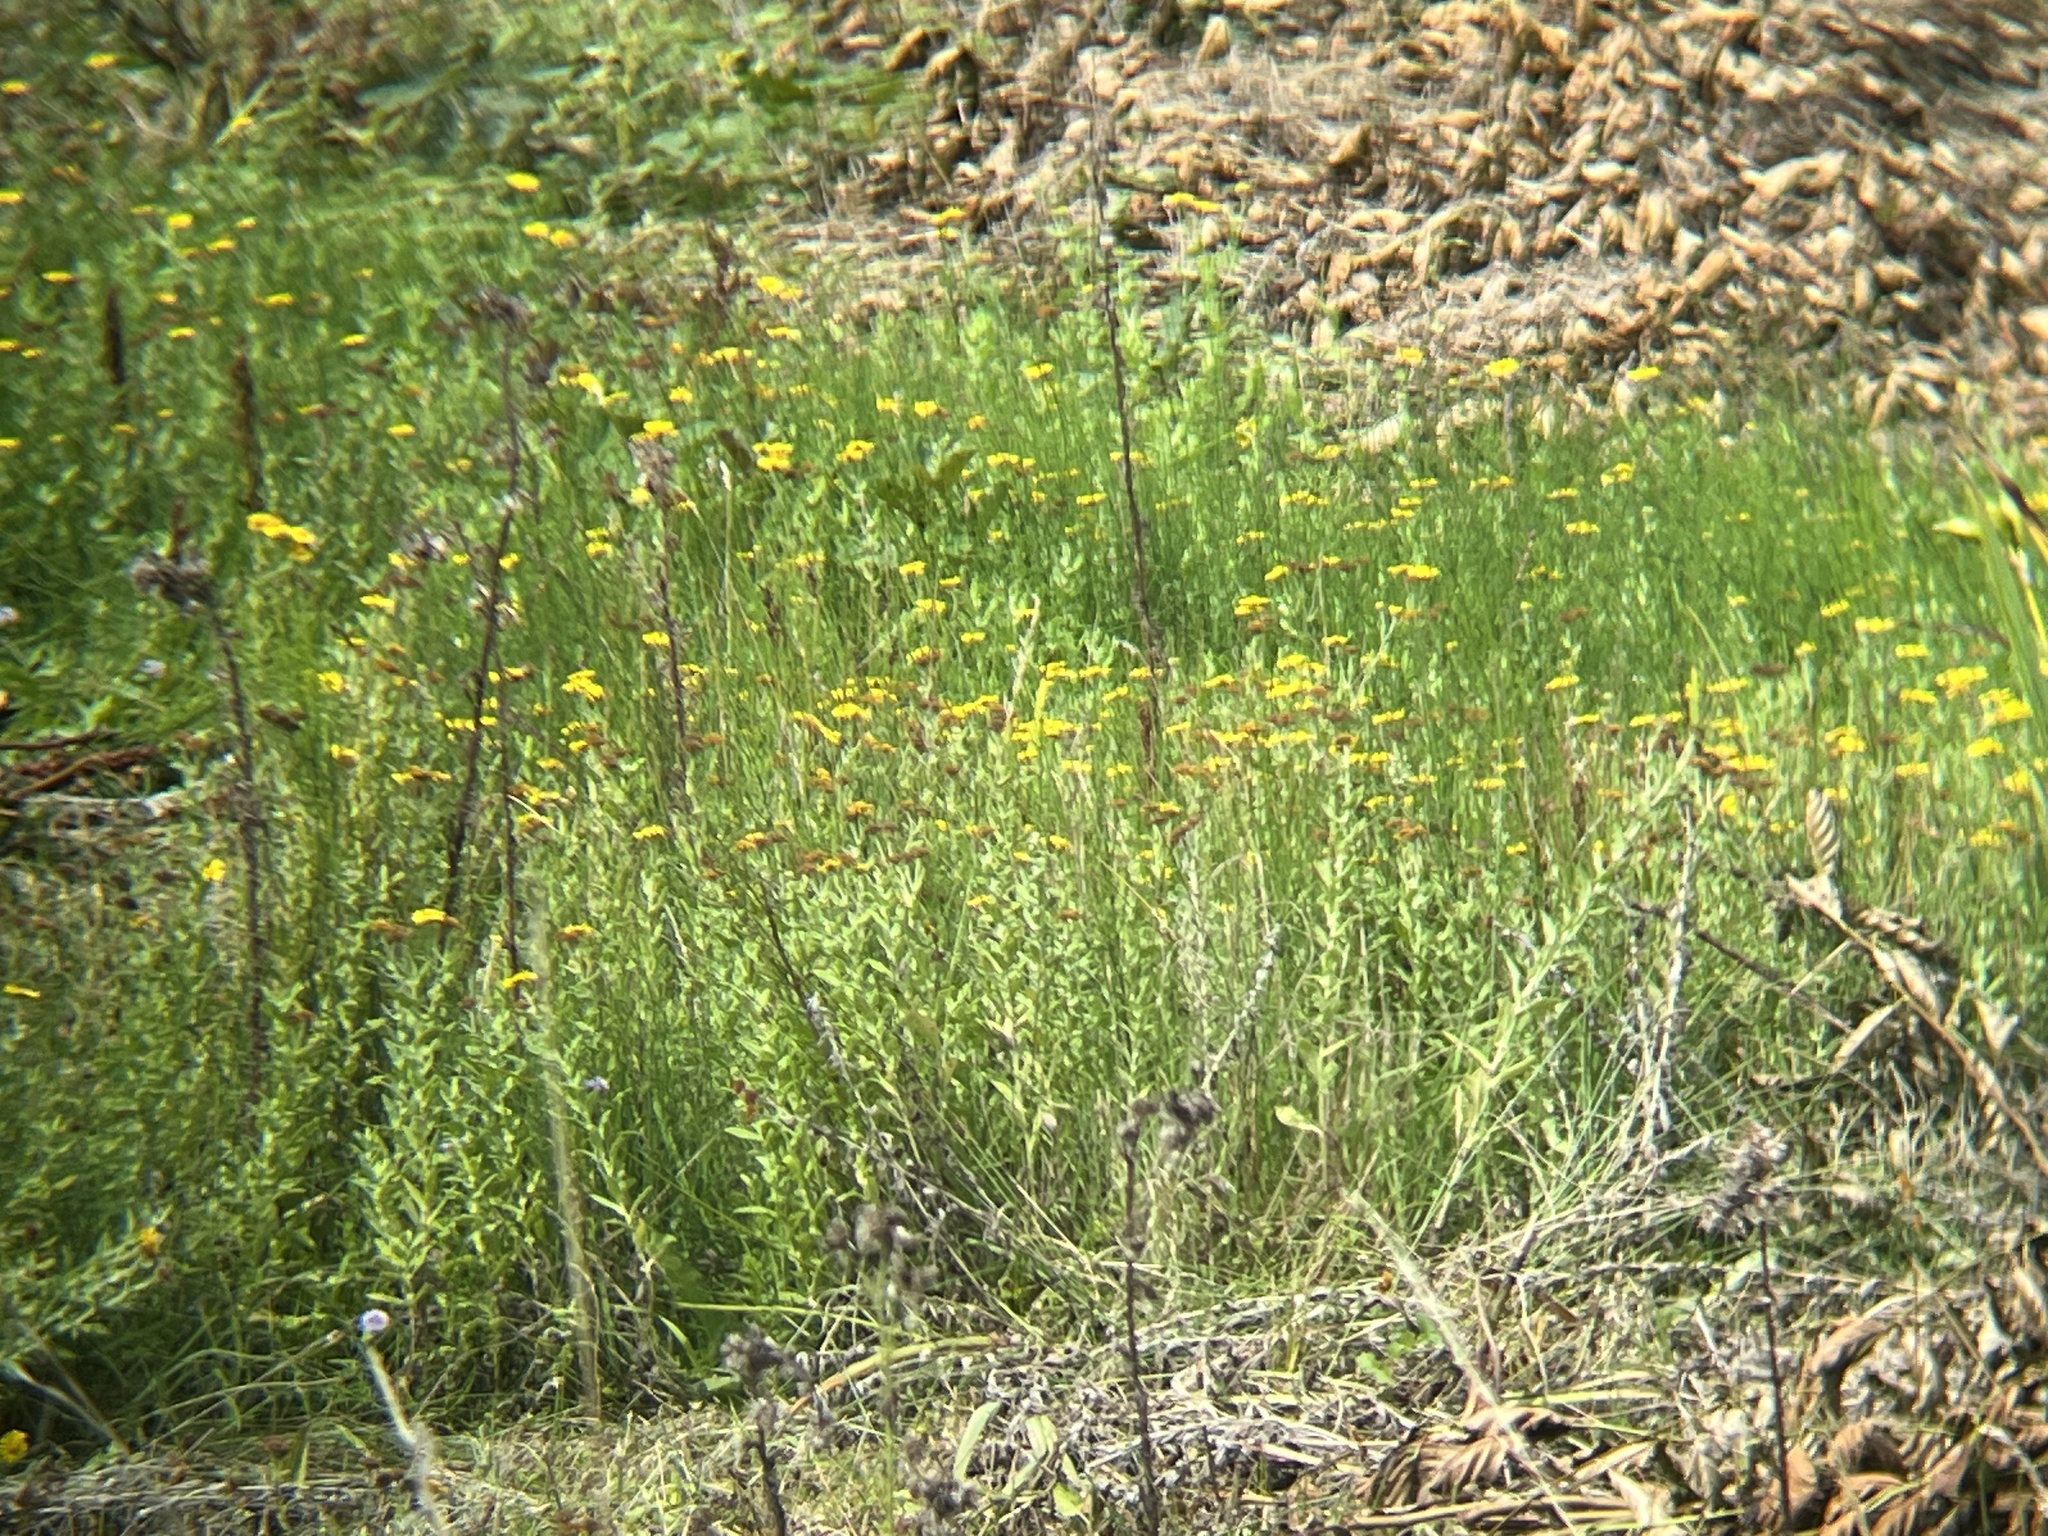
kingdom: Plantae
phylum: Tracheophyta
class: Magnoliopsida
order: Asterales
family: Asteraceae
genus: Pulicaria
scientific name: Pulicaria dysenterica
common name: Common fleabane
